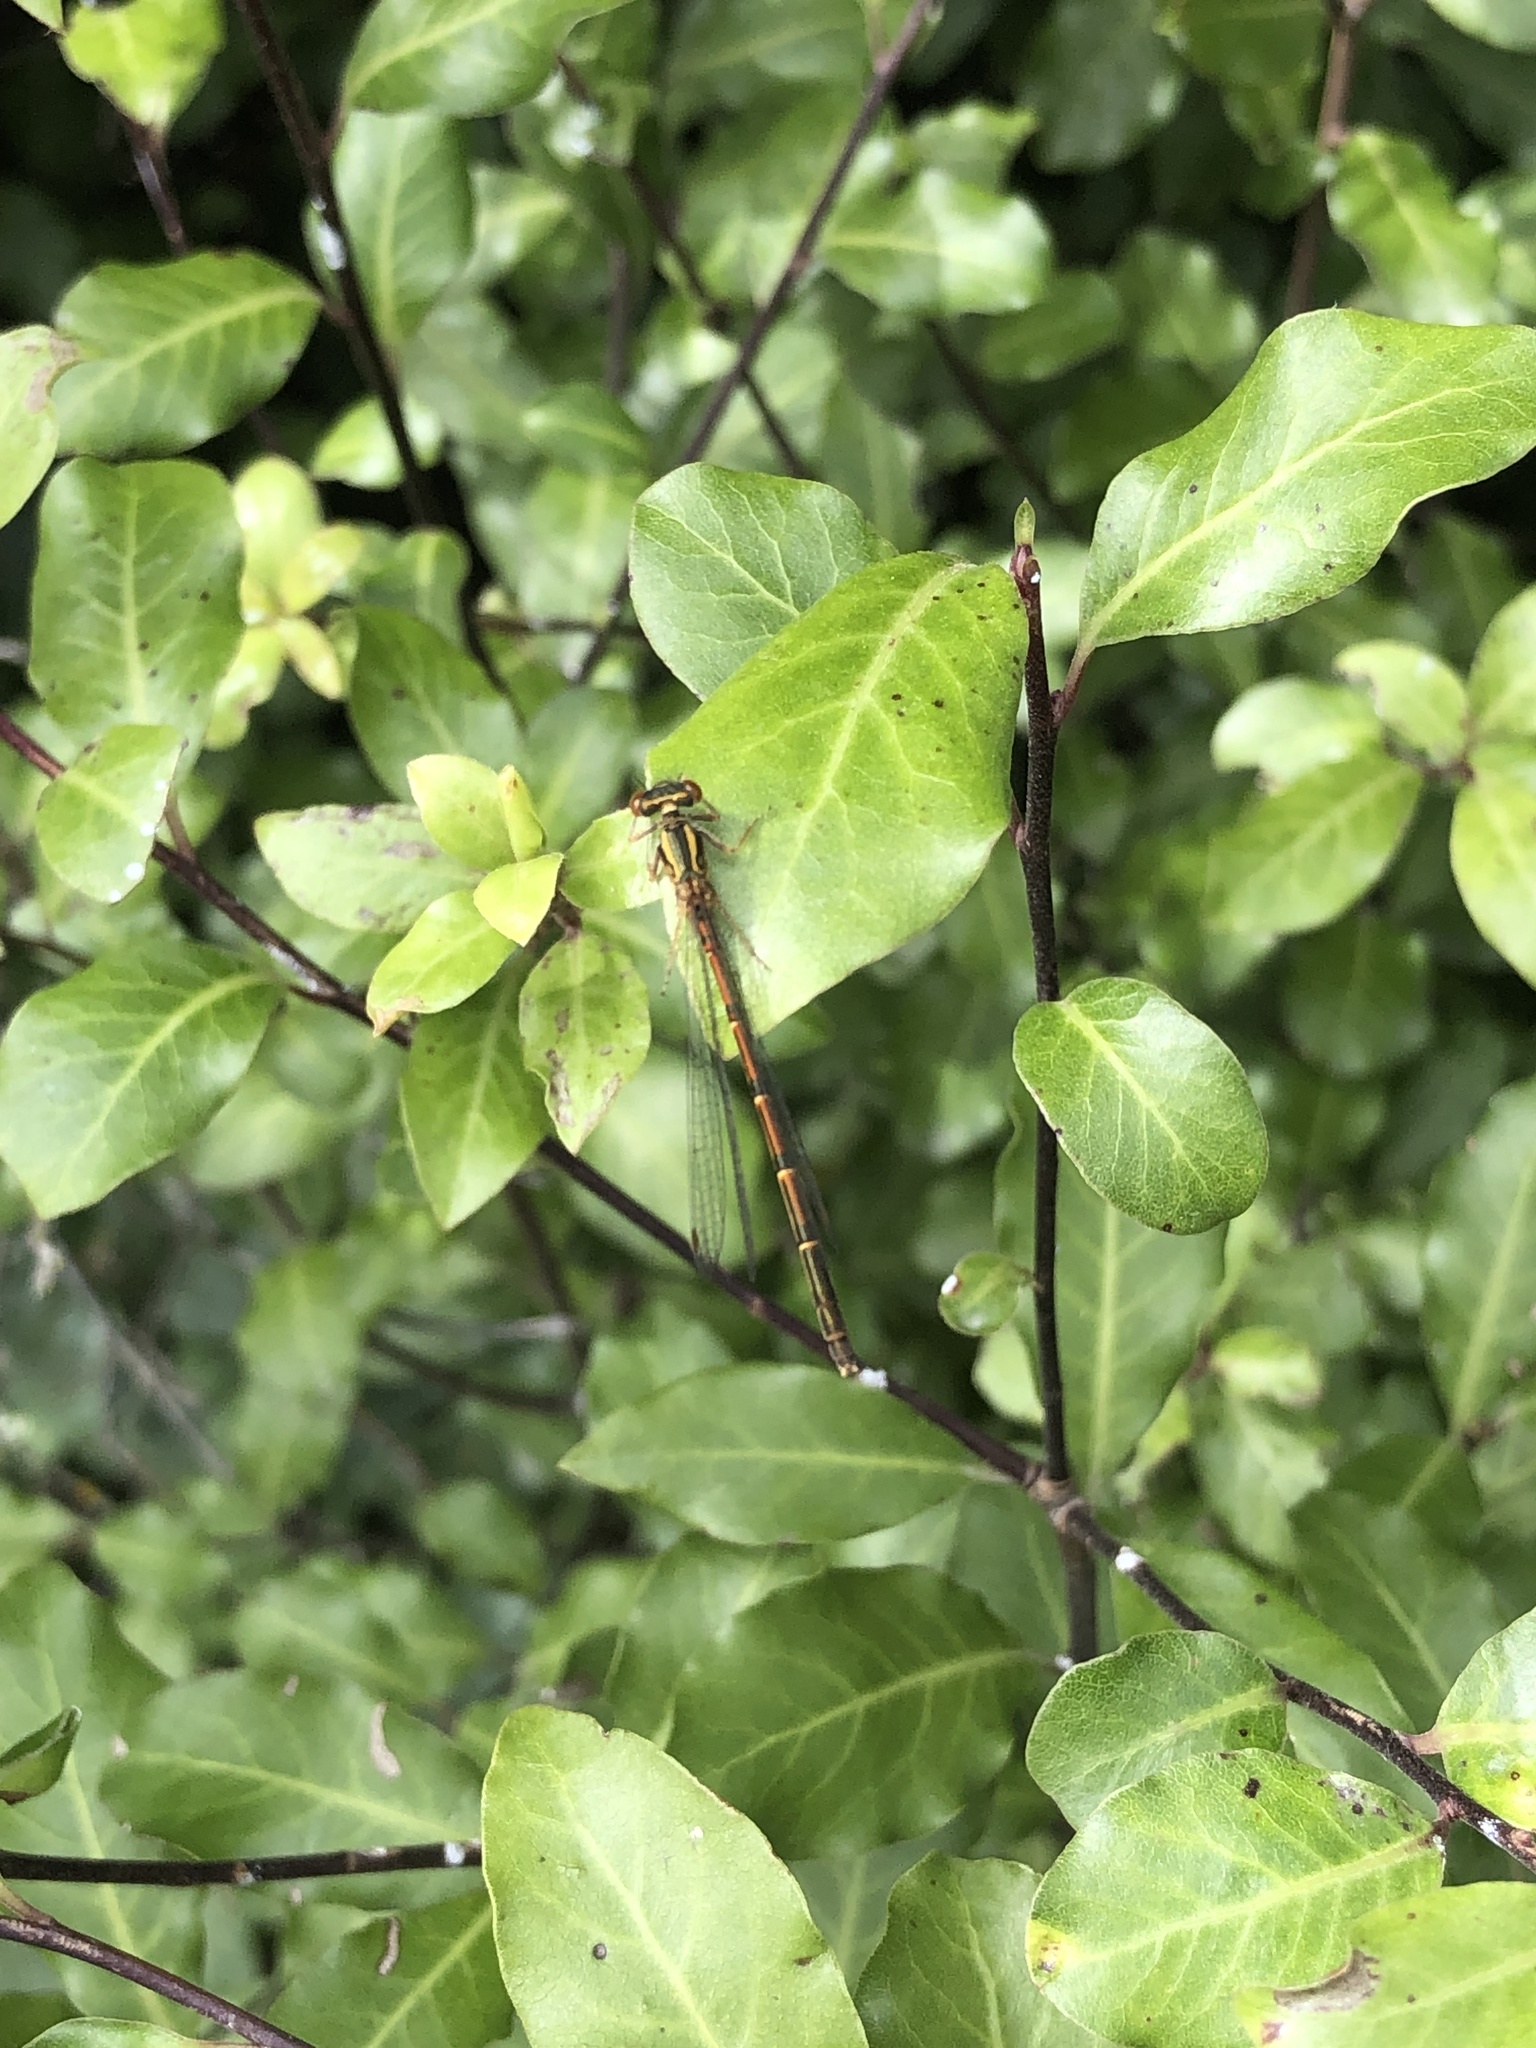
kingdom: Animalia
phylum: Arthropoda
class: Insecta
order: Odonata
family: Coenagrionidae
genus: Xanthocnemis
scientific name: Xanthocnemis zealandica
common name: Common redcoat damselfly
